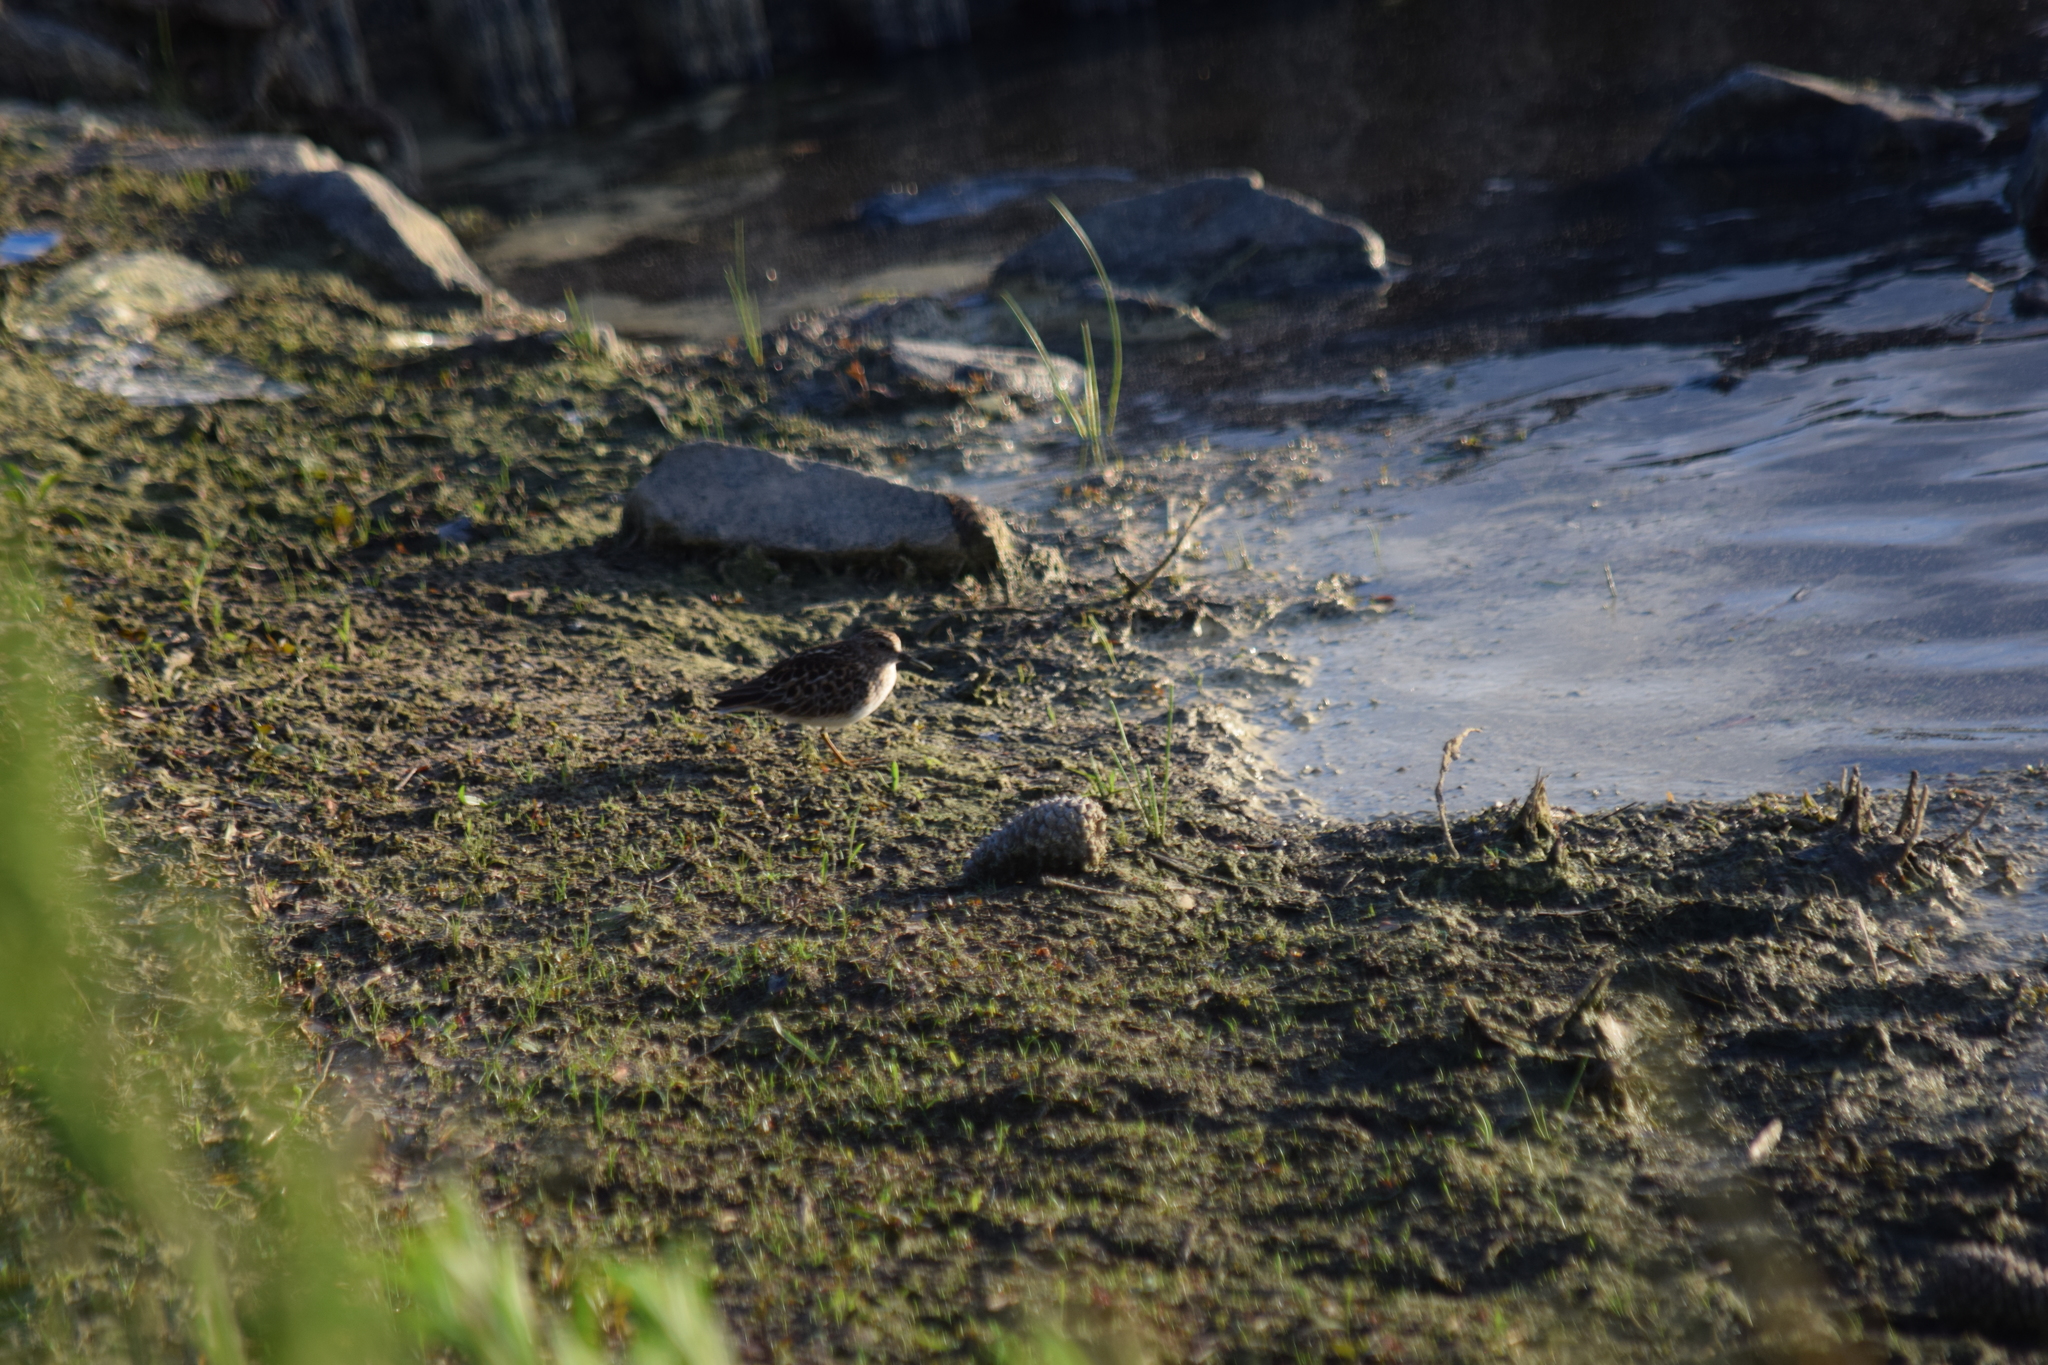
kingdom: Animalia
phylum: Chordata
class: Aves
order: Charadriiformes
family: Scolopacidae
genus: Calidris
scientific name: Calidris minutilla
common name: Least sandpiper
